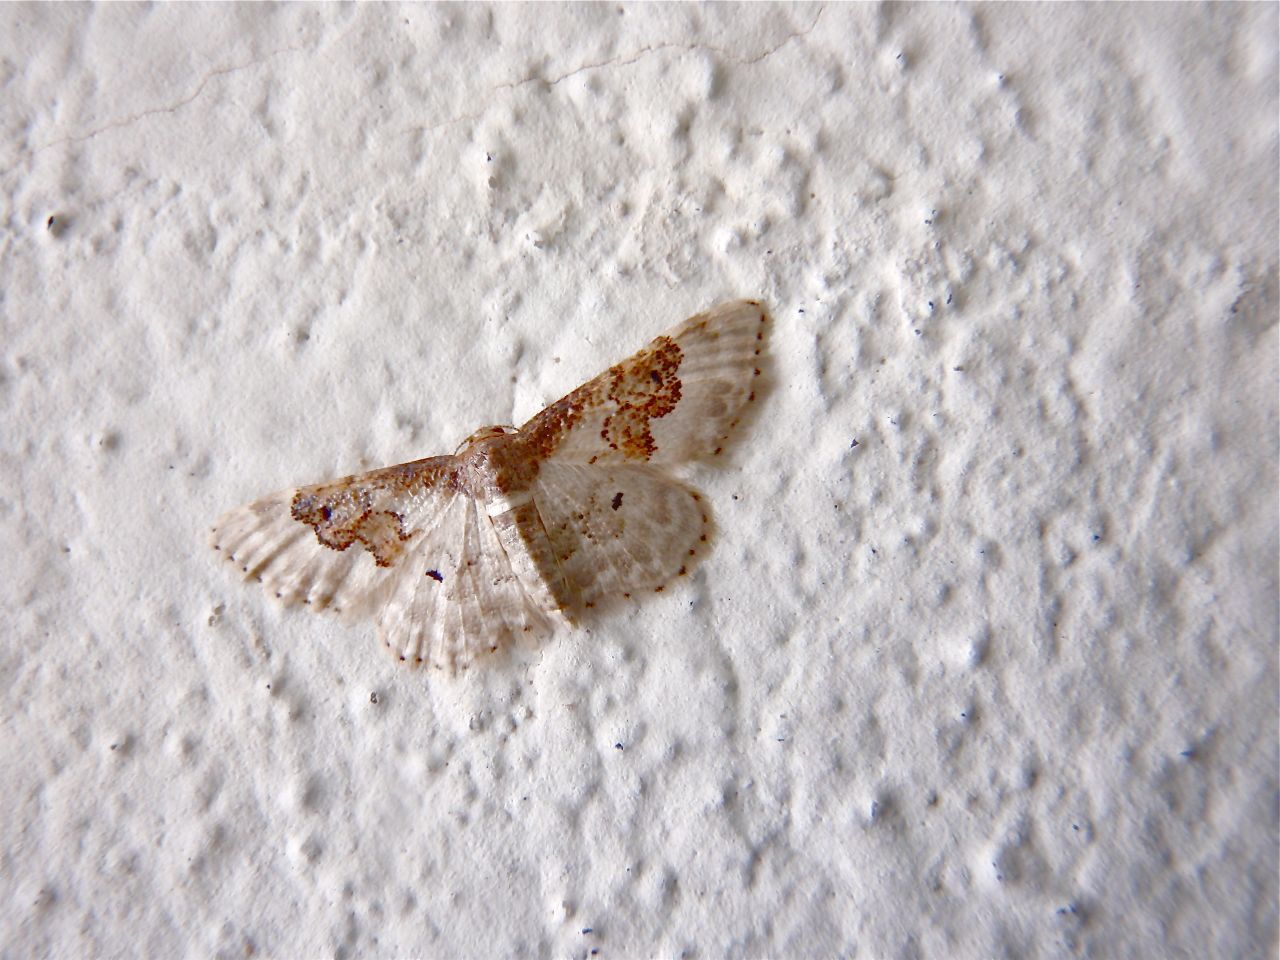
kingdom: Animalia
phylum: Arthropoda
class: Insecta
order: Lepidoptera
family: Geometridae
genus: Idaea
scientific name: Idaea rusticata
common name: Least carpet
